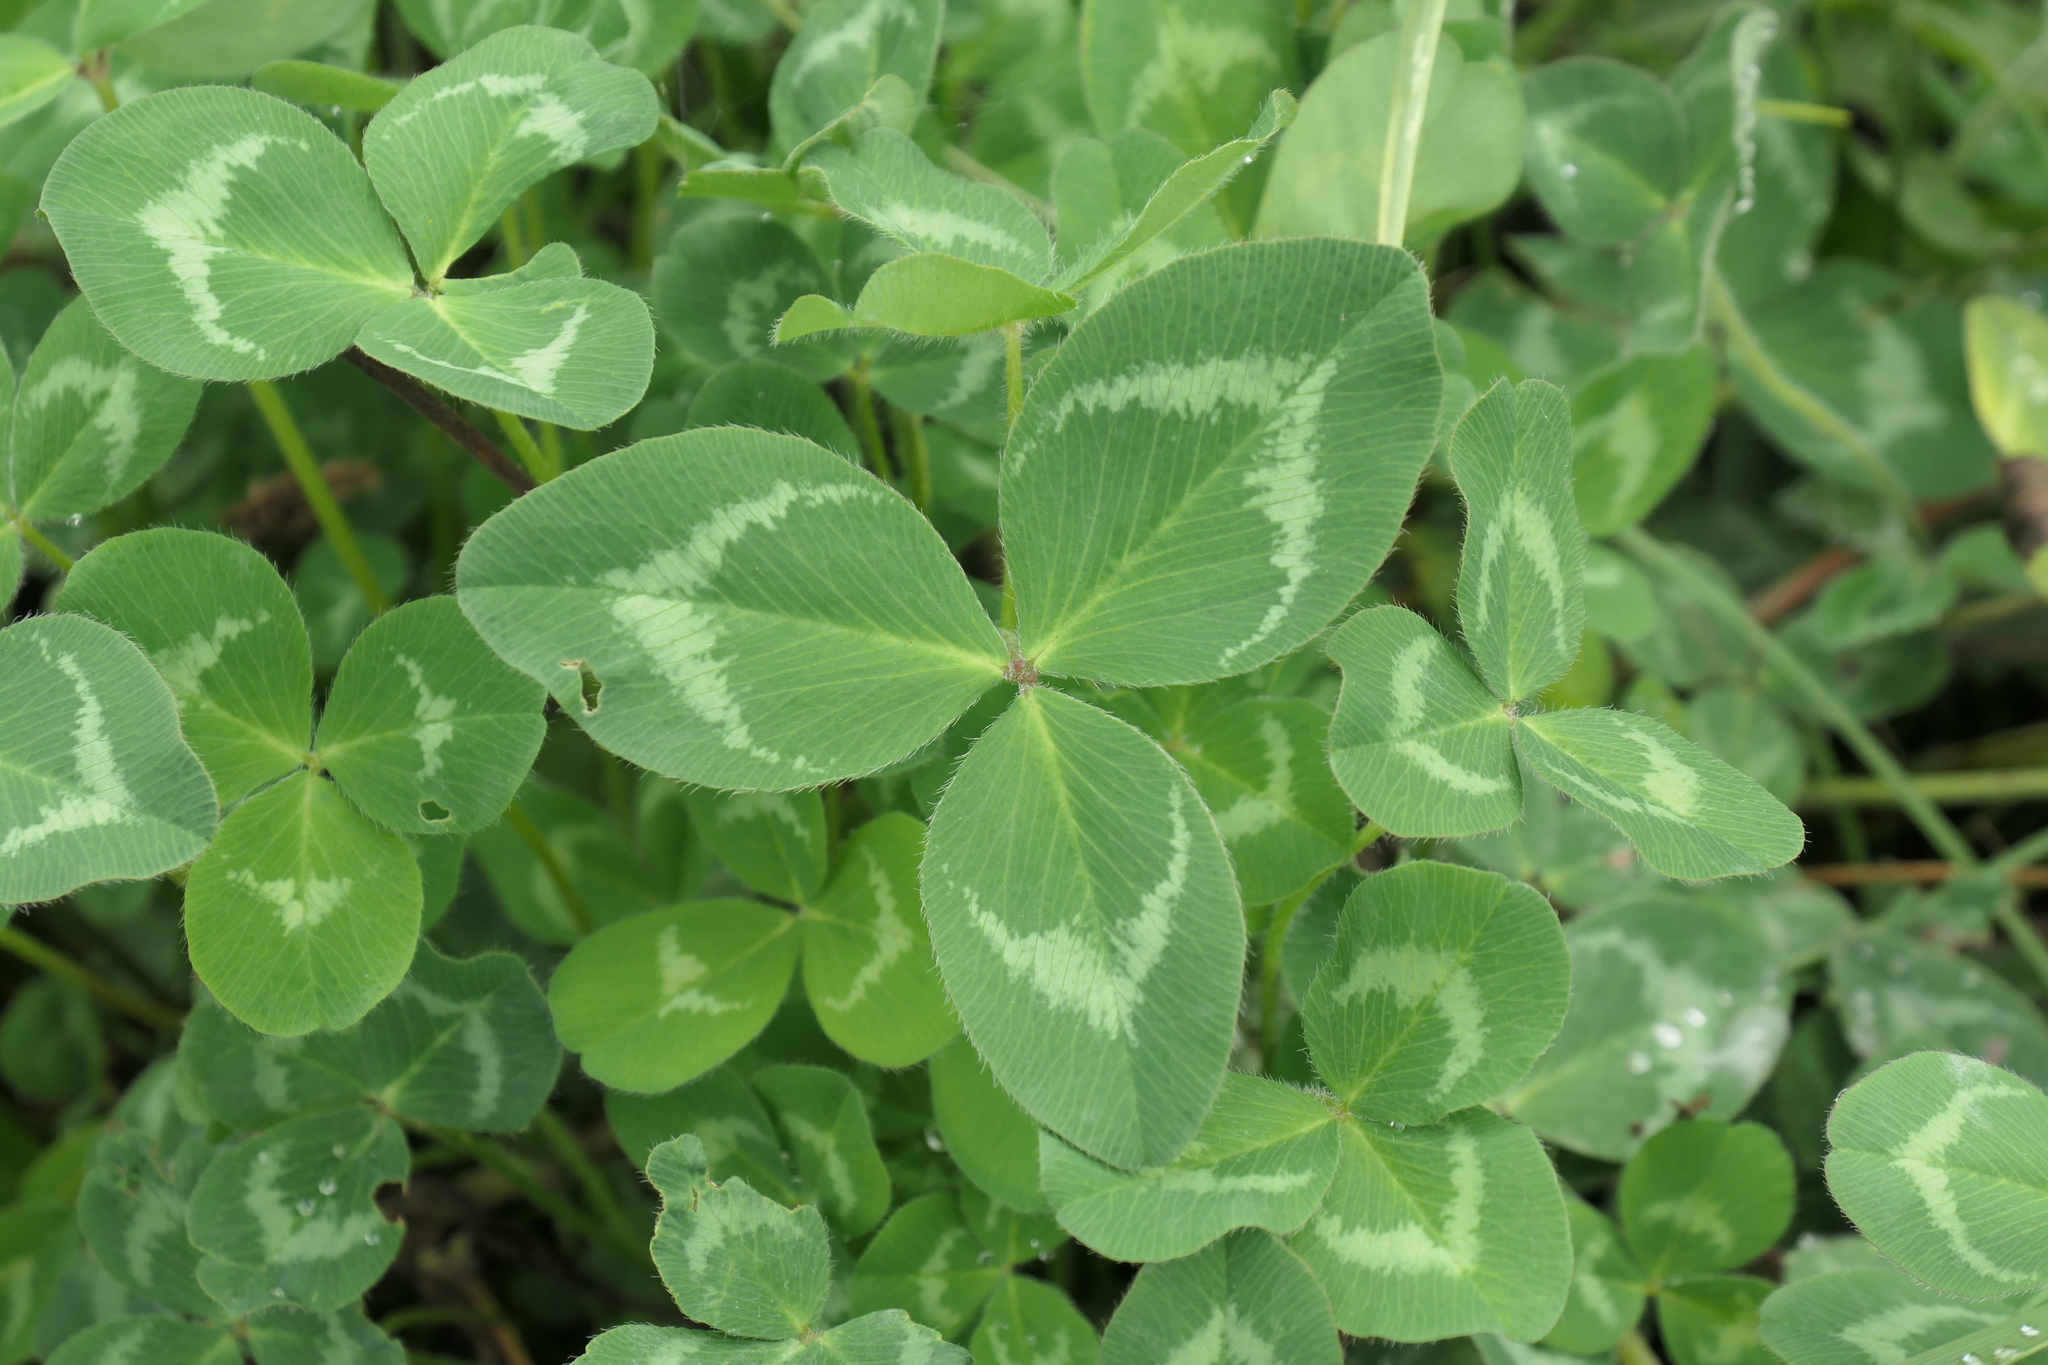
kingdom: Plantae
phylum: Tracheophyta
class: Magnoliopsida
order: Fabales
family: Fabaceae
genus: Trifolium
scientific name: Trifolium pratense
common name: Red clover
